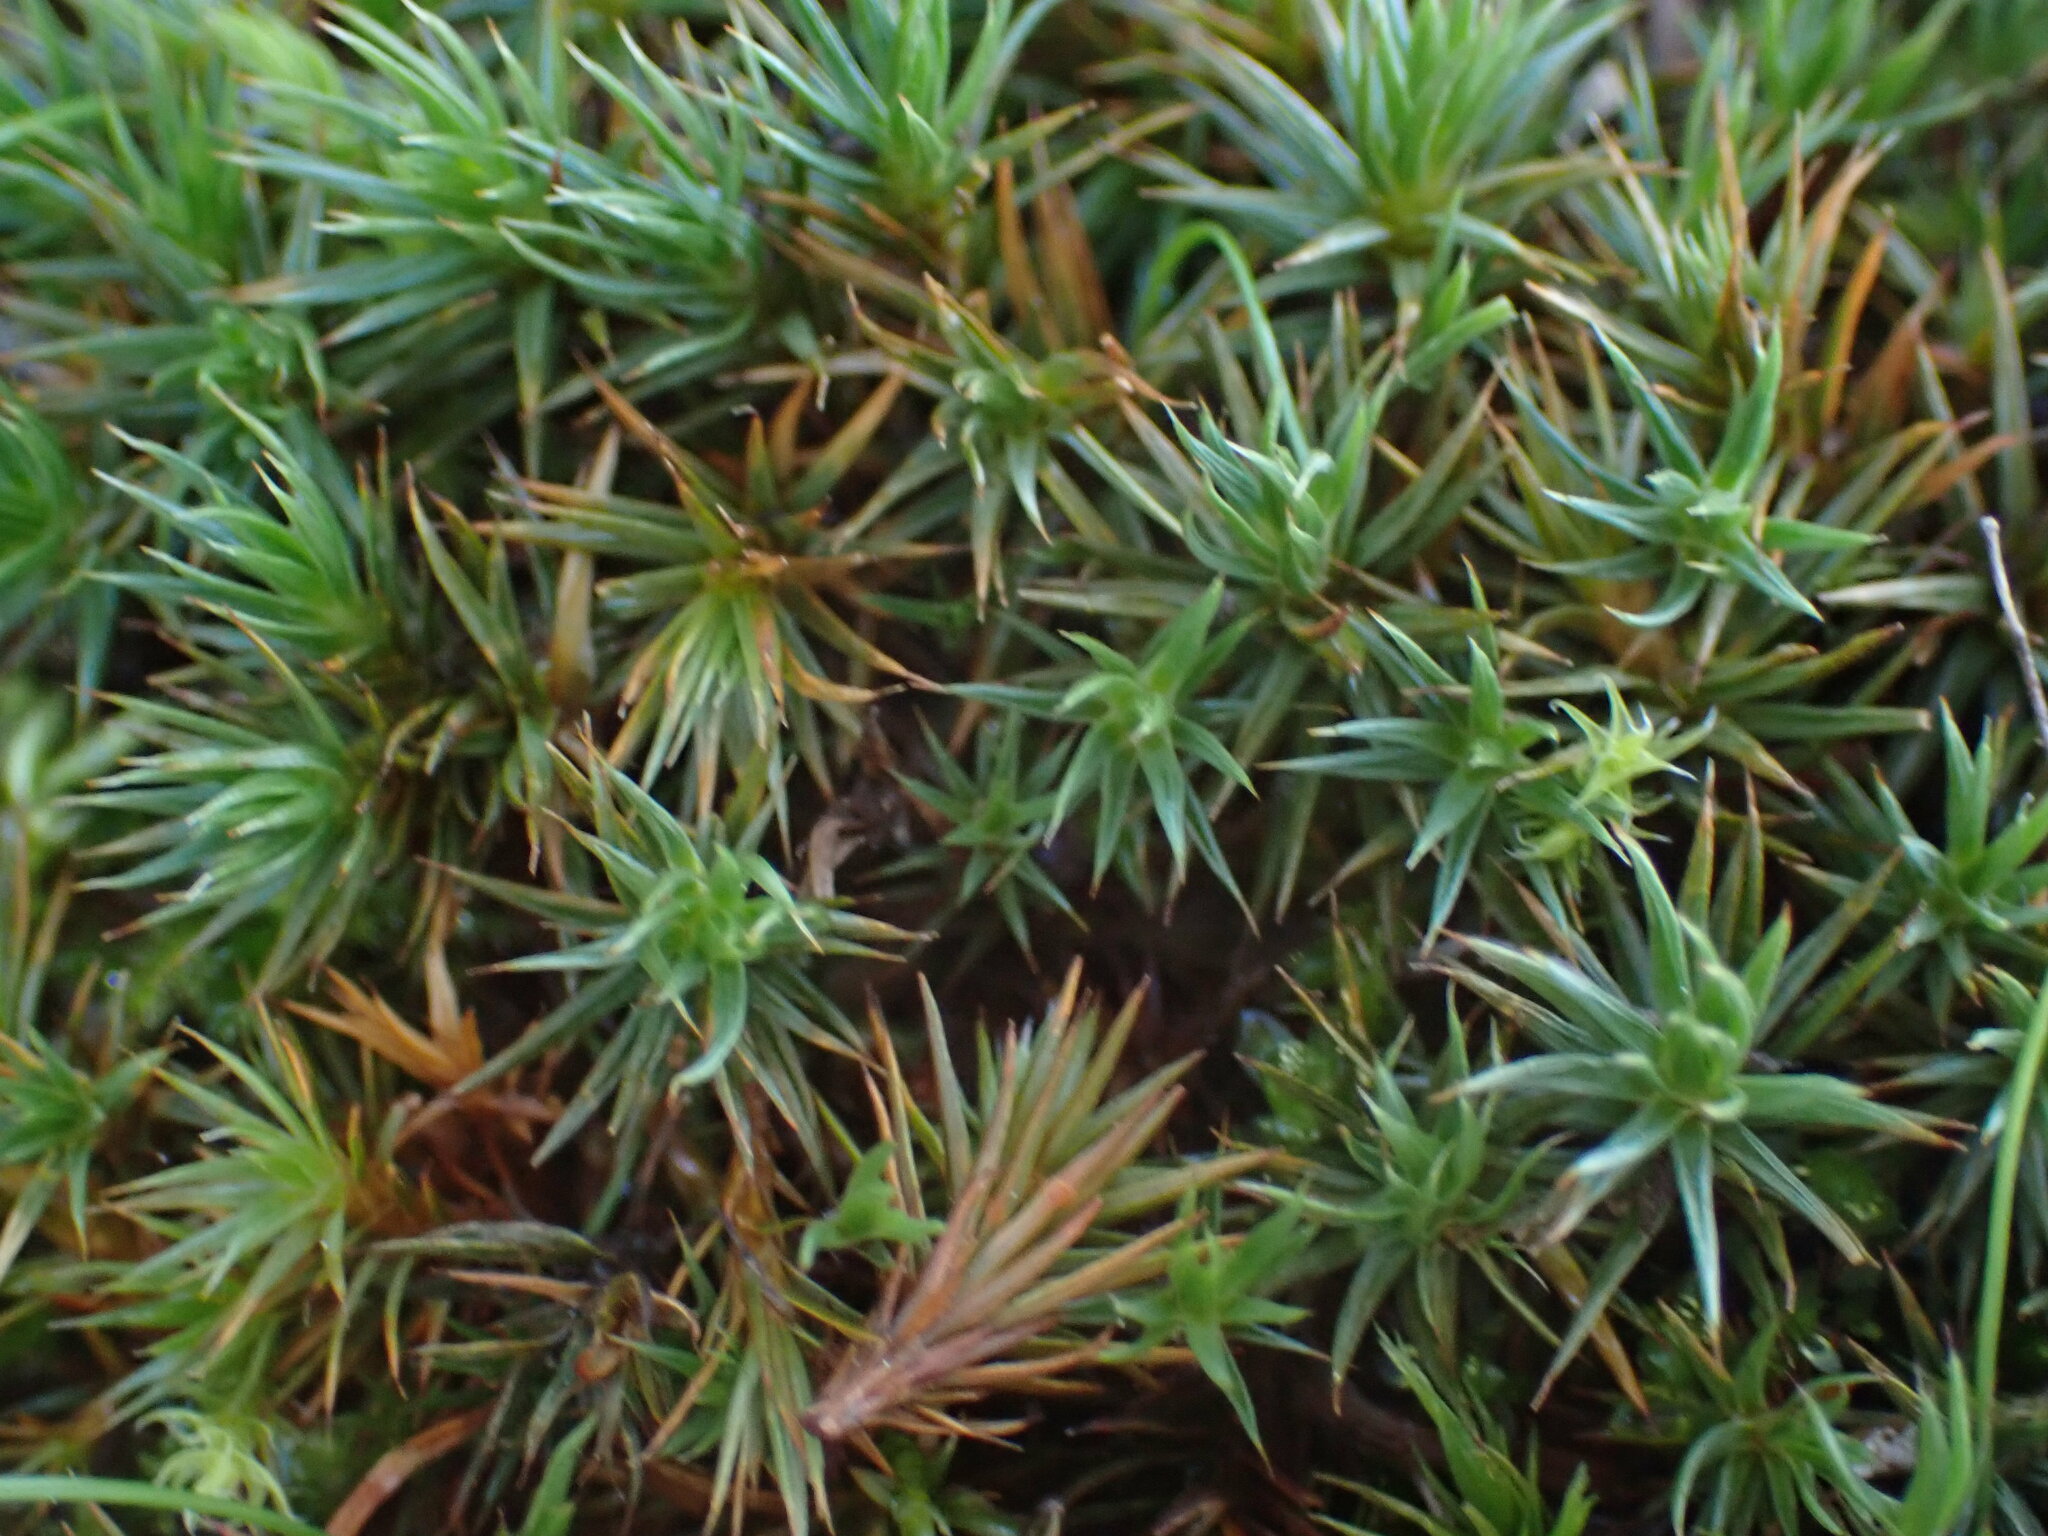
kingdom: Plantae
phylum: Bryophyta
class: Polytrichopsida
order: Polytrichales
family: Polytrichaceae
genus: Polytrichum
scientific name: Polytrichum juniperinum
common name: Juniper haircap moss
